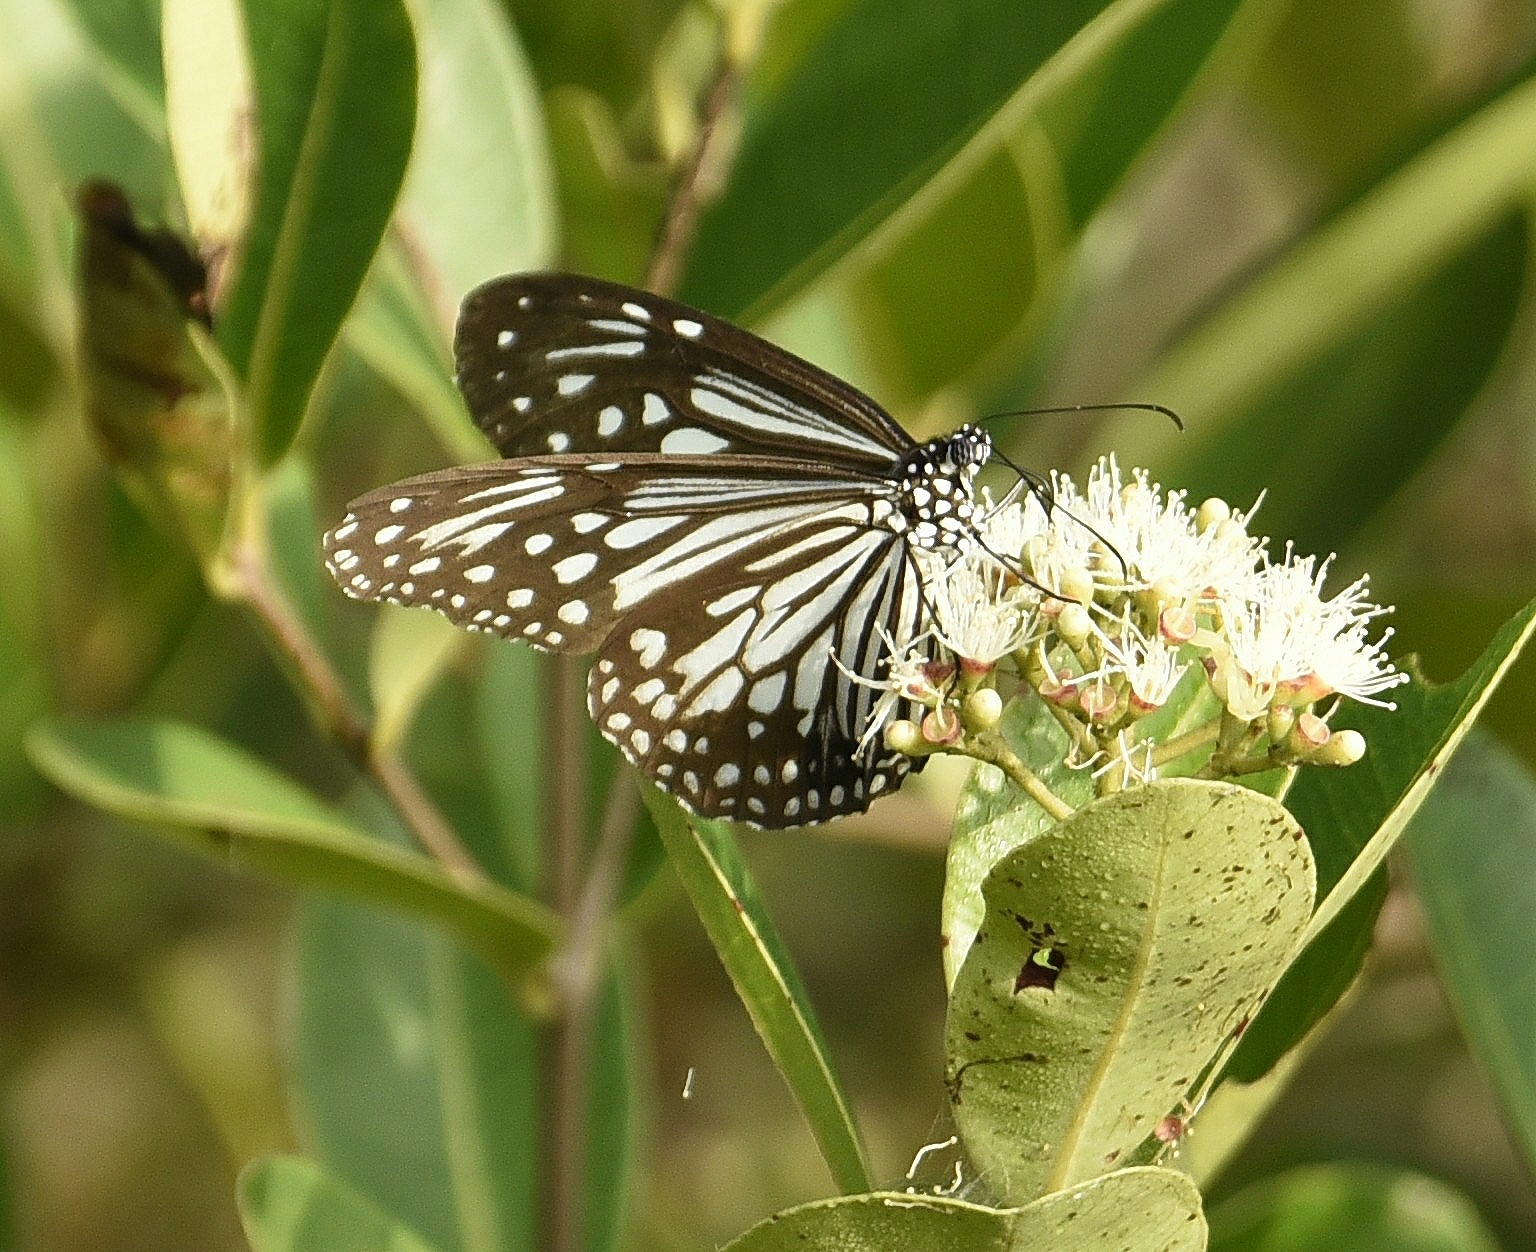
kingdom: Animalia
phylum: Arthropoda
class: Insecta
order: Lepidoptera
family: Nymphalidae
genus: Parantica
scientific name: Parantica aglea
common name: Glassy tiger
